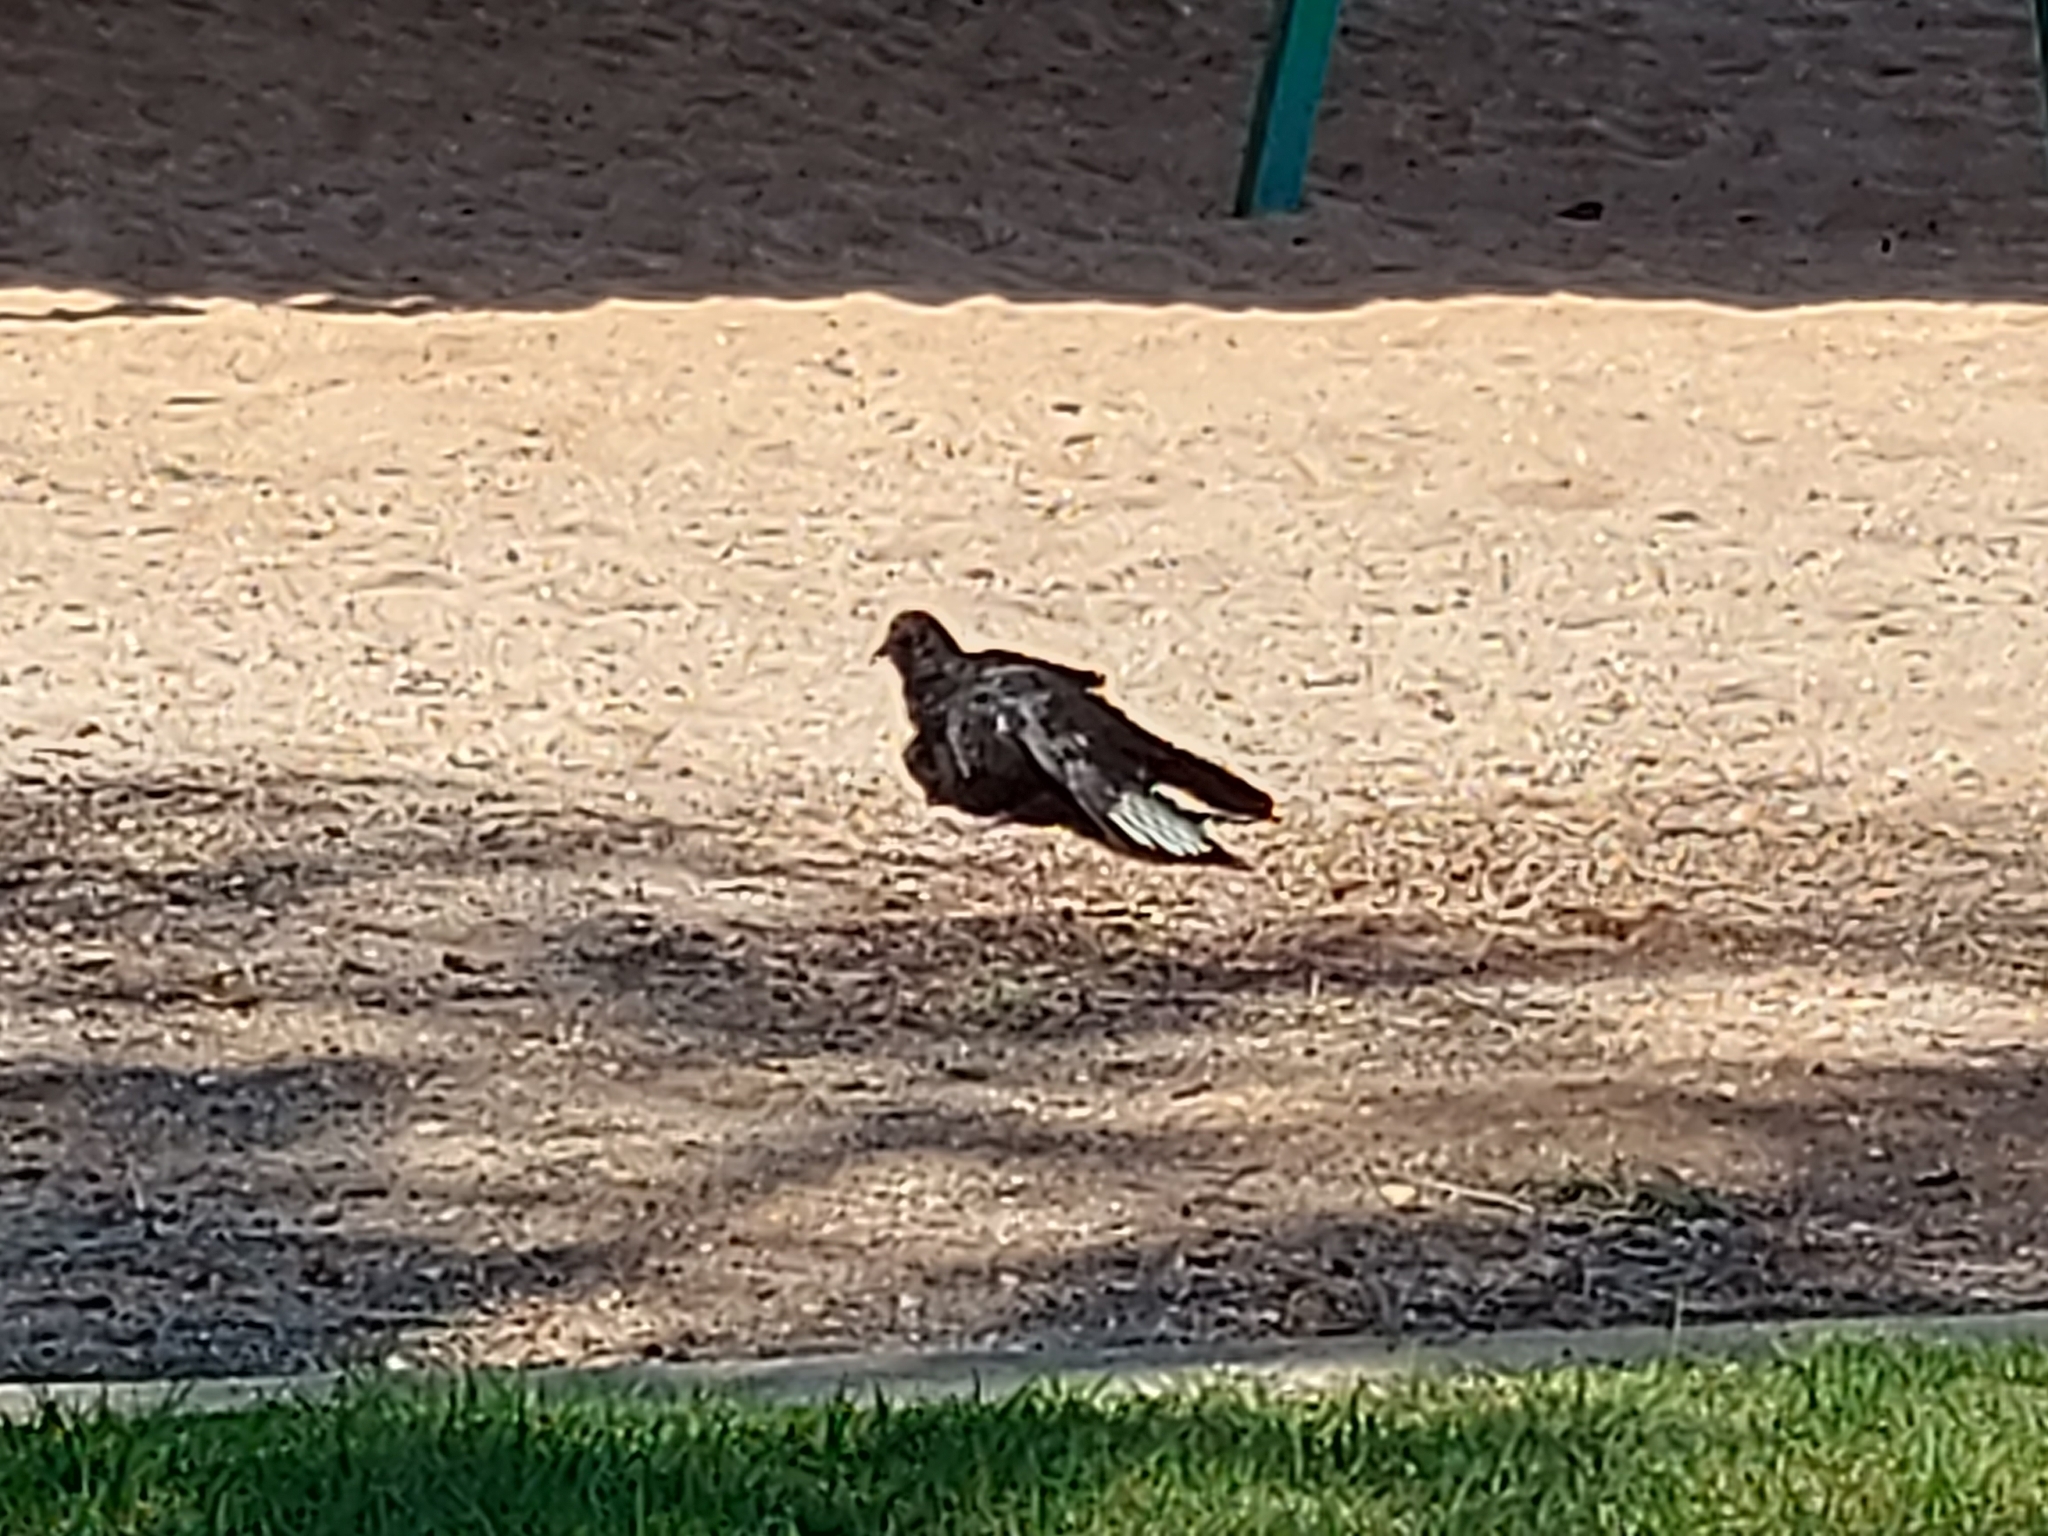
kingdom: Animalia
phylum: Chordata
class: Aves
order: Passeriformes
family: Corcoracidae
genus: Corcorax
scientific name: Corcorax melanoramphos
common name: White-winged chough
